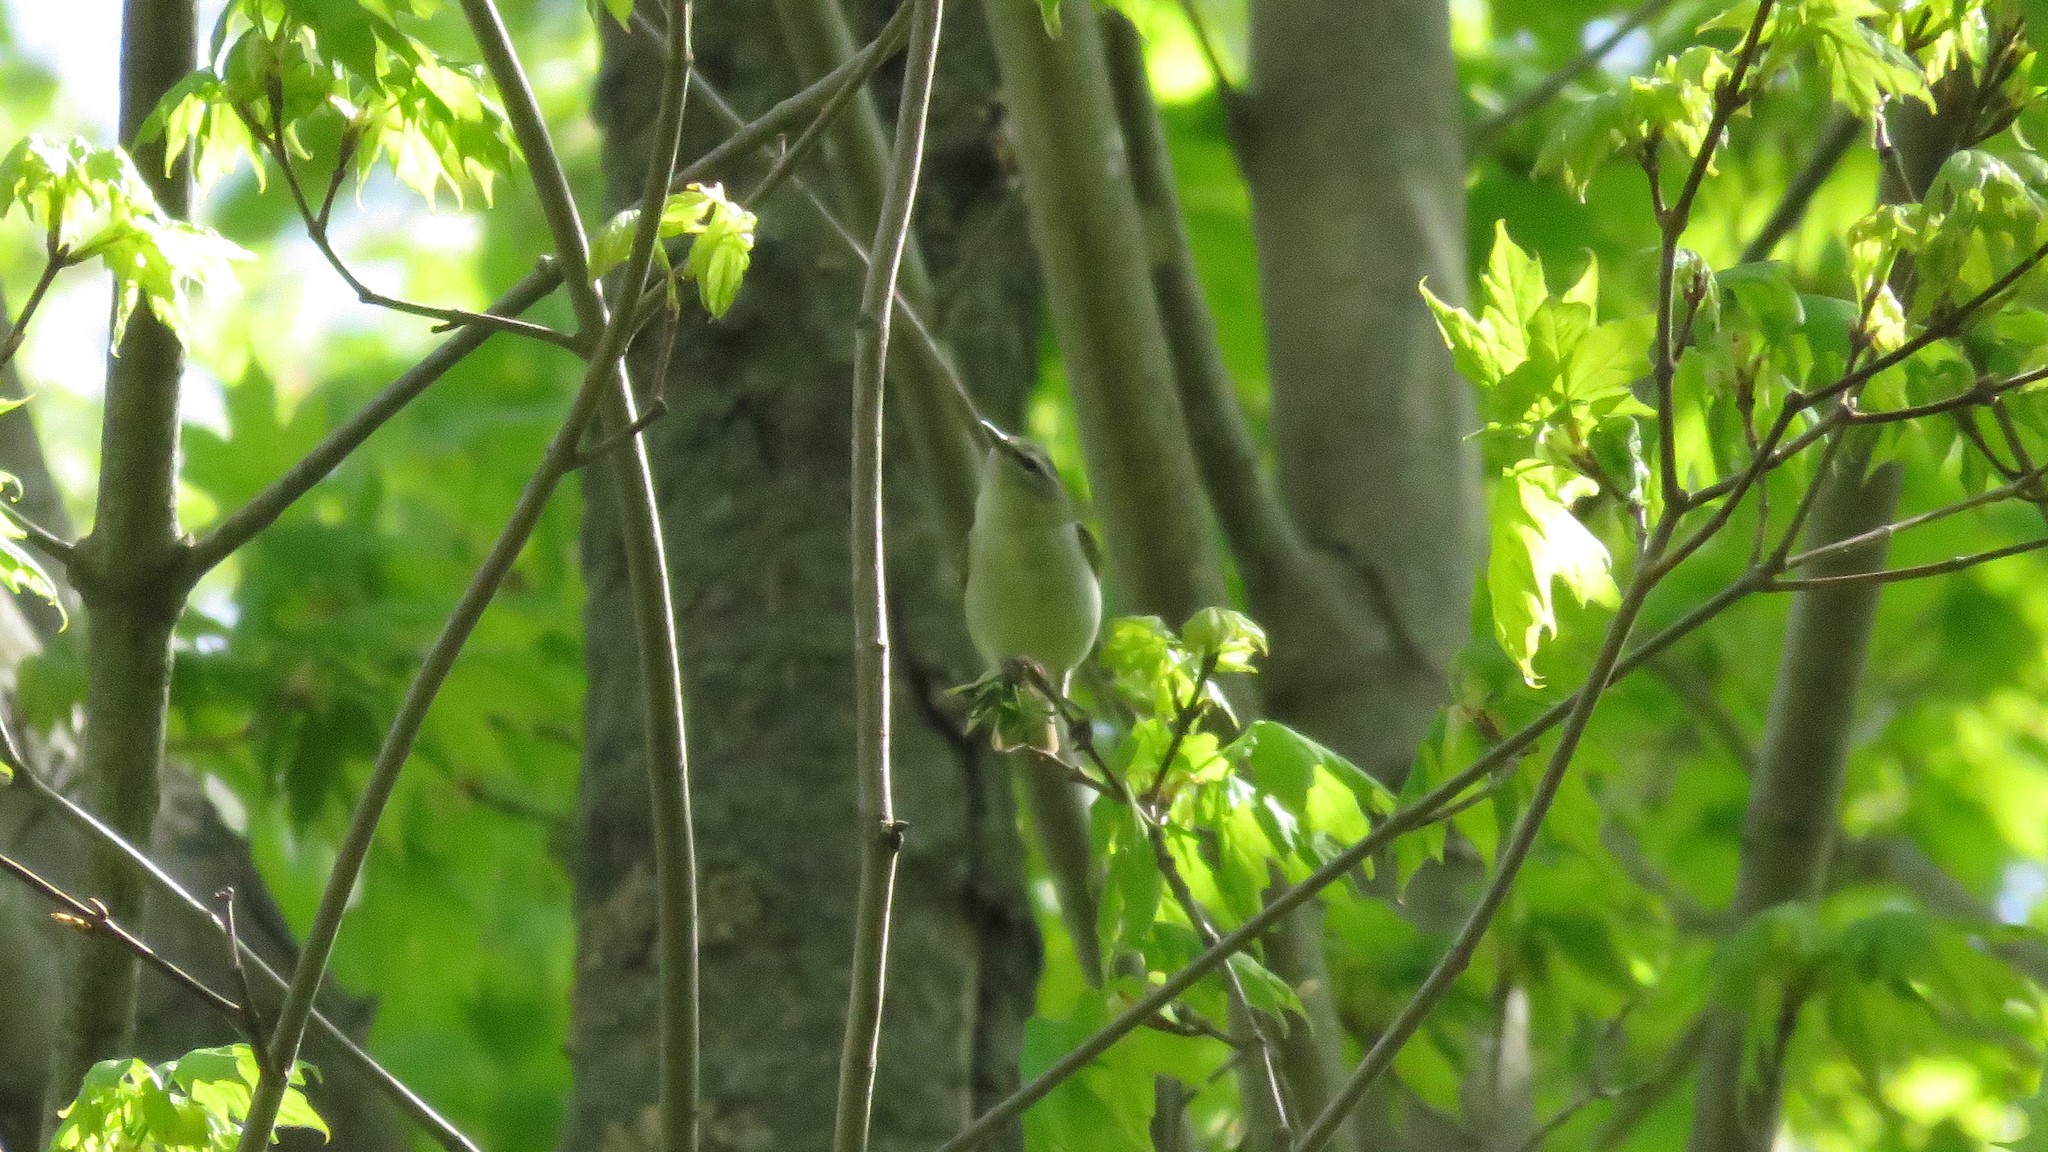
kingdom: Animalia
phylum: Chordata
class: Aves
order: Passeriformes
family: Parulidae
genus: Leiothlypis
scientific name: Leiothlypis peregrina
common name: Tennessee warbler
